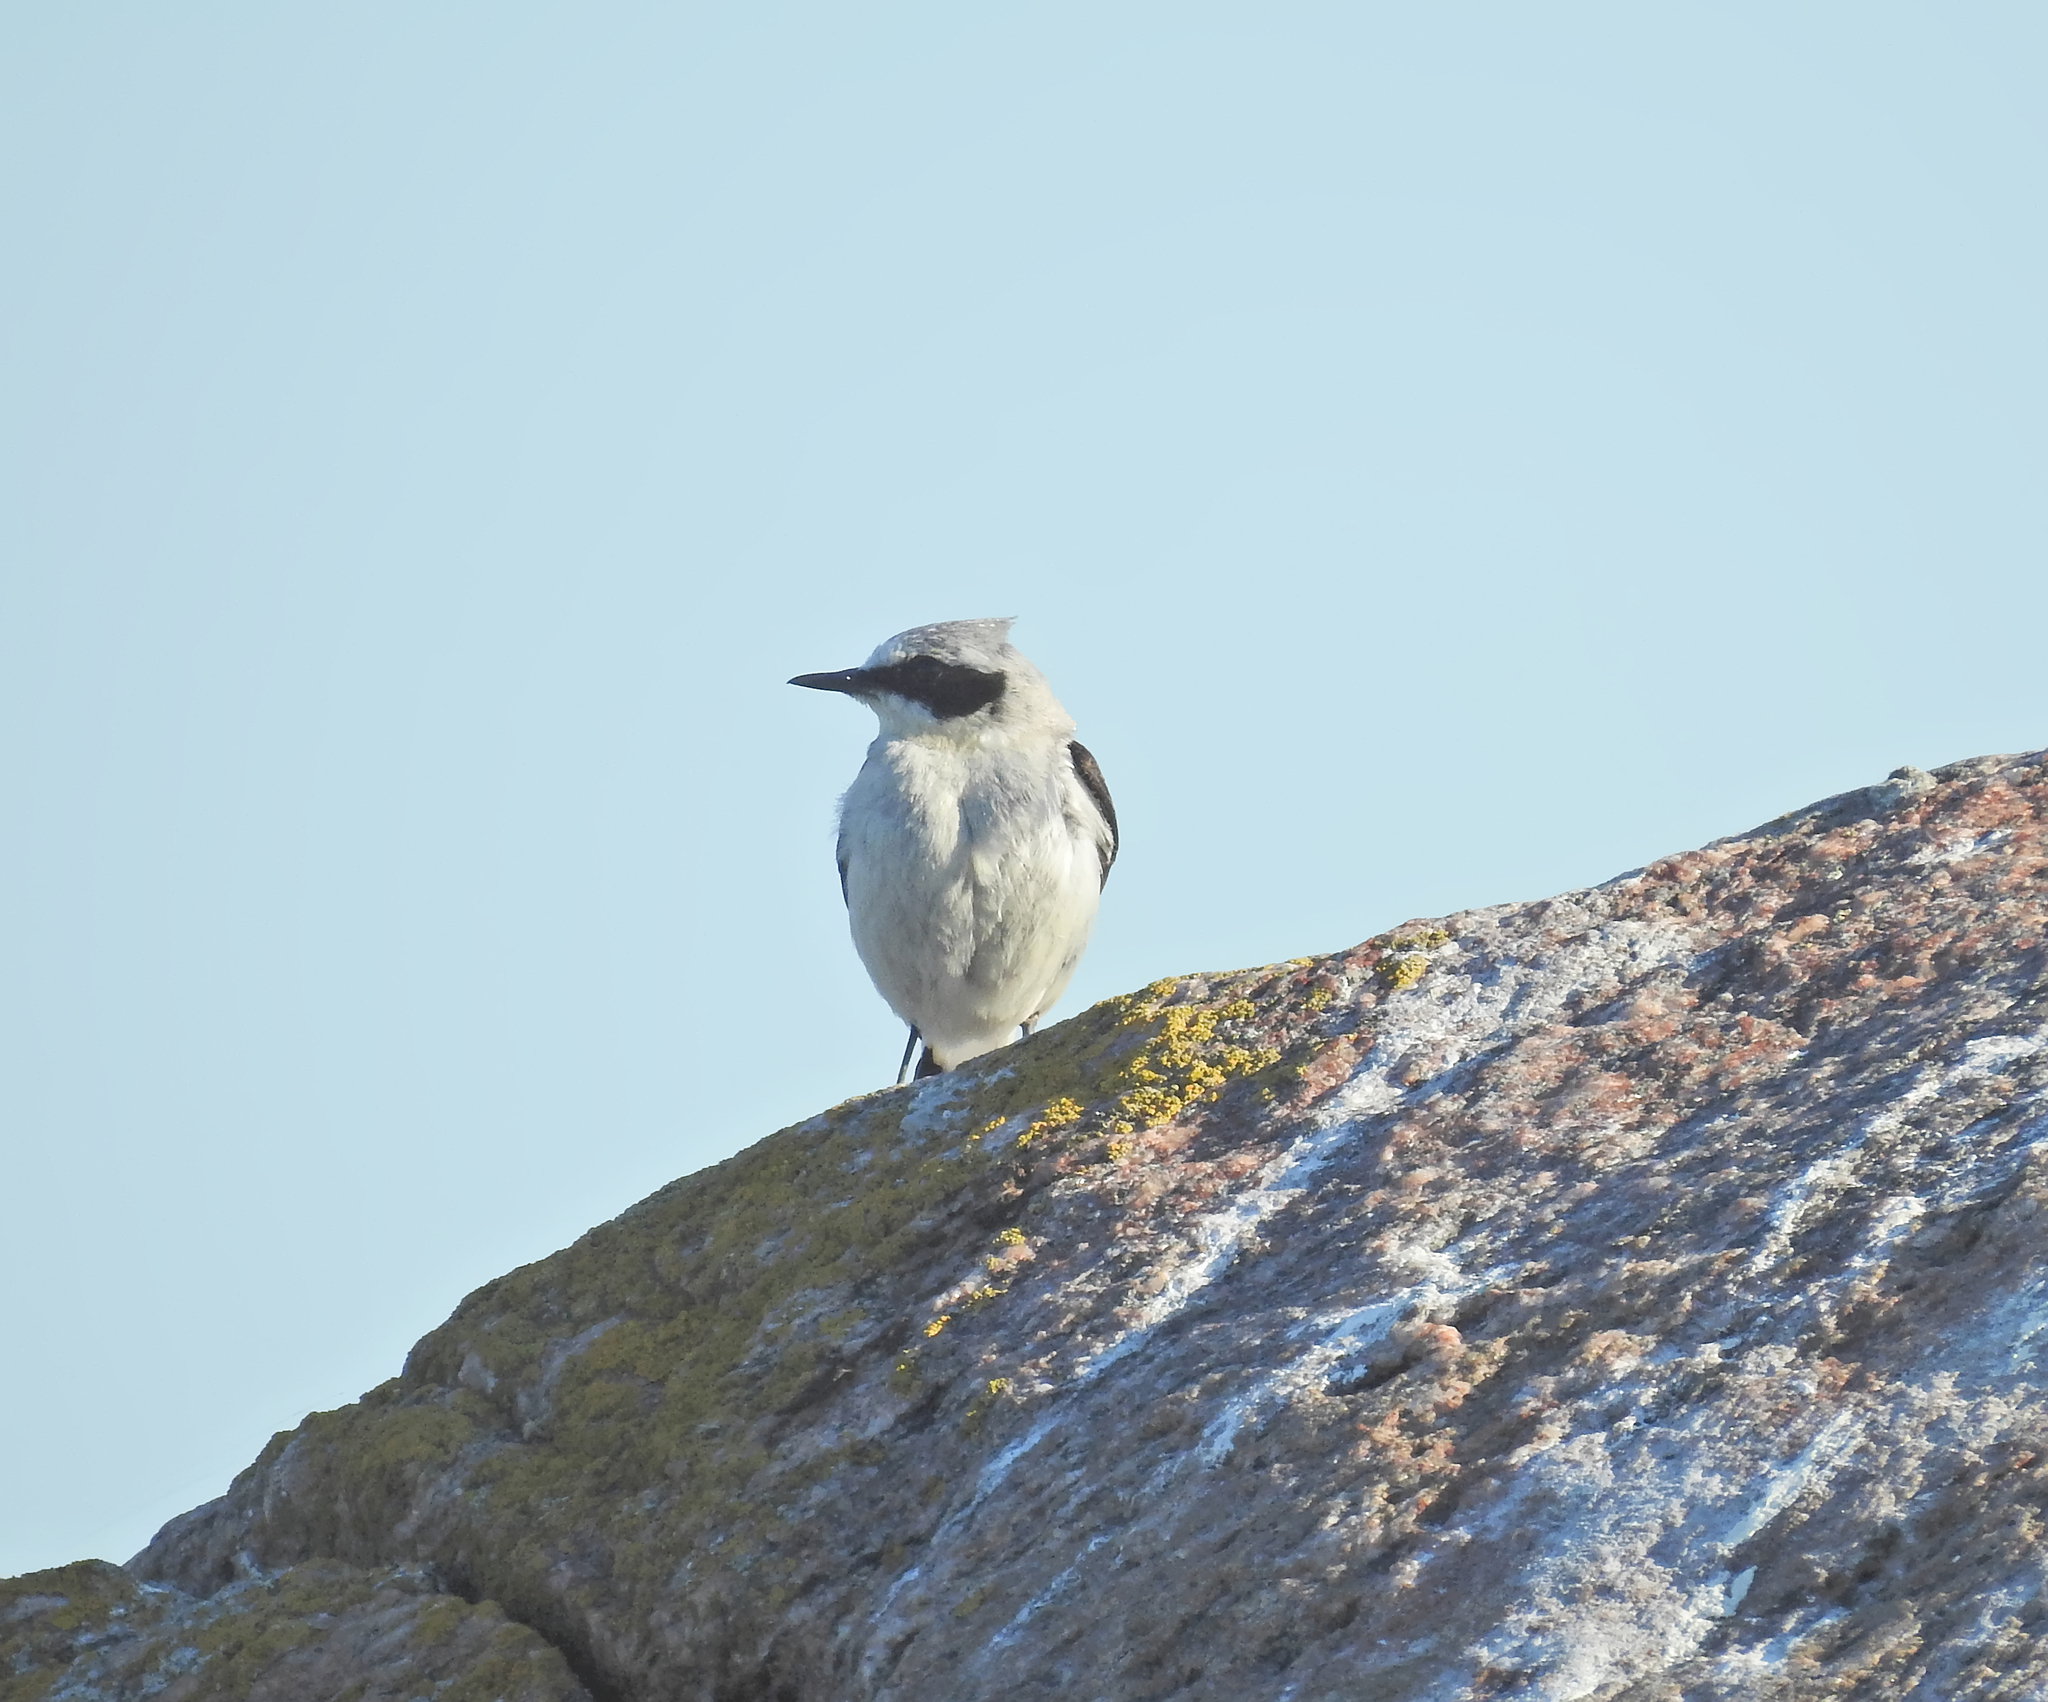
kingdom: Animalia
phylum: Chordata
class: Aves
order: Passeriformes
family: Muscicapidae
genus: Oenanthe
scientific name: Oenanthe oenanthe
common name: Northern wheatear
